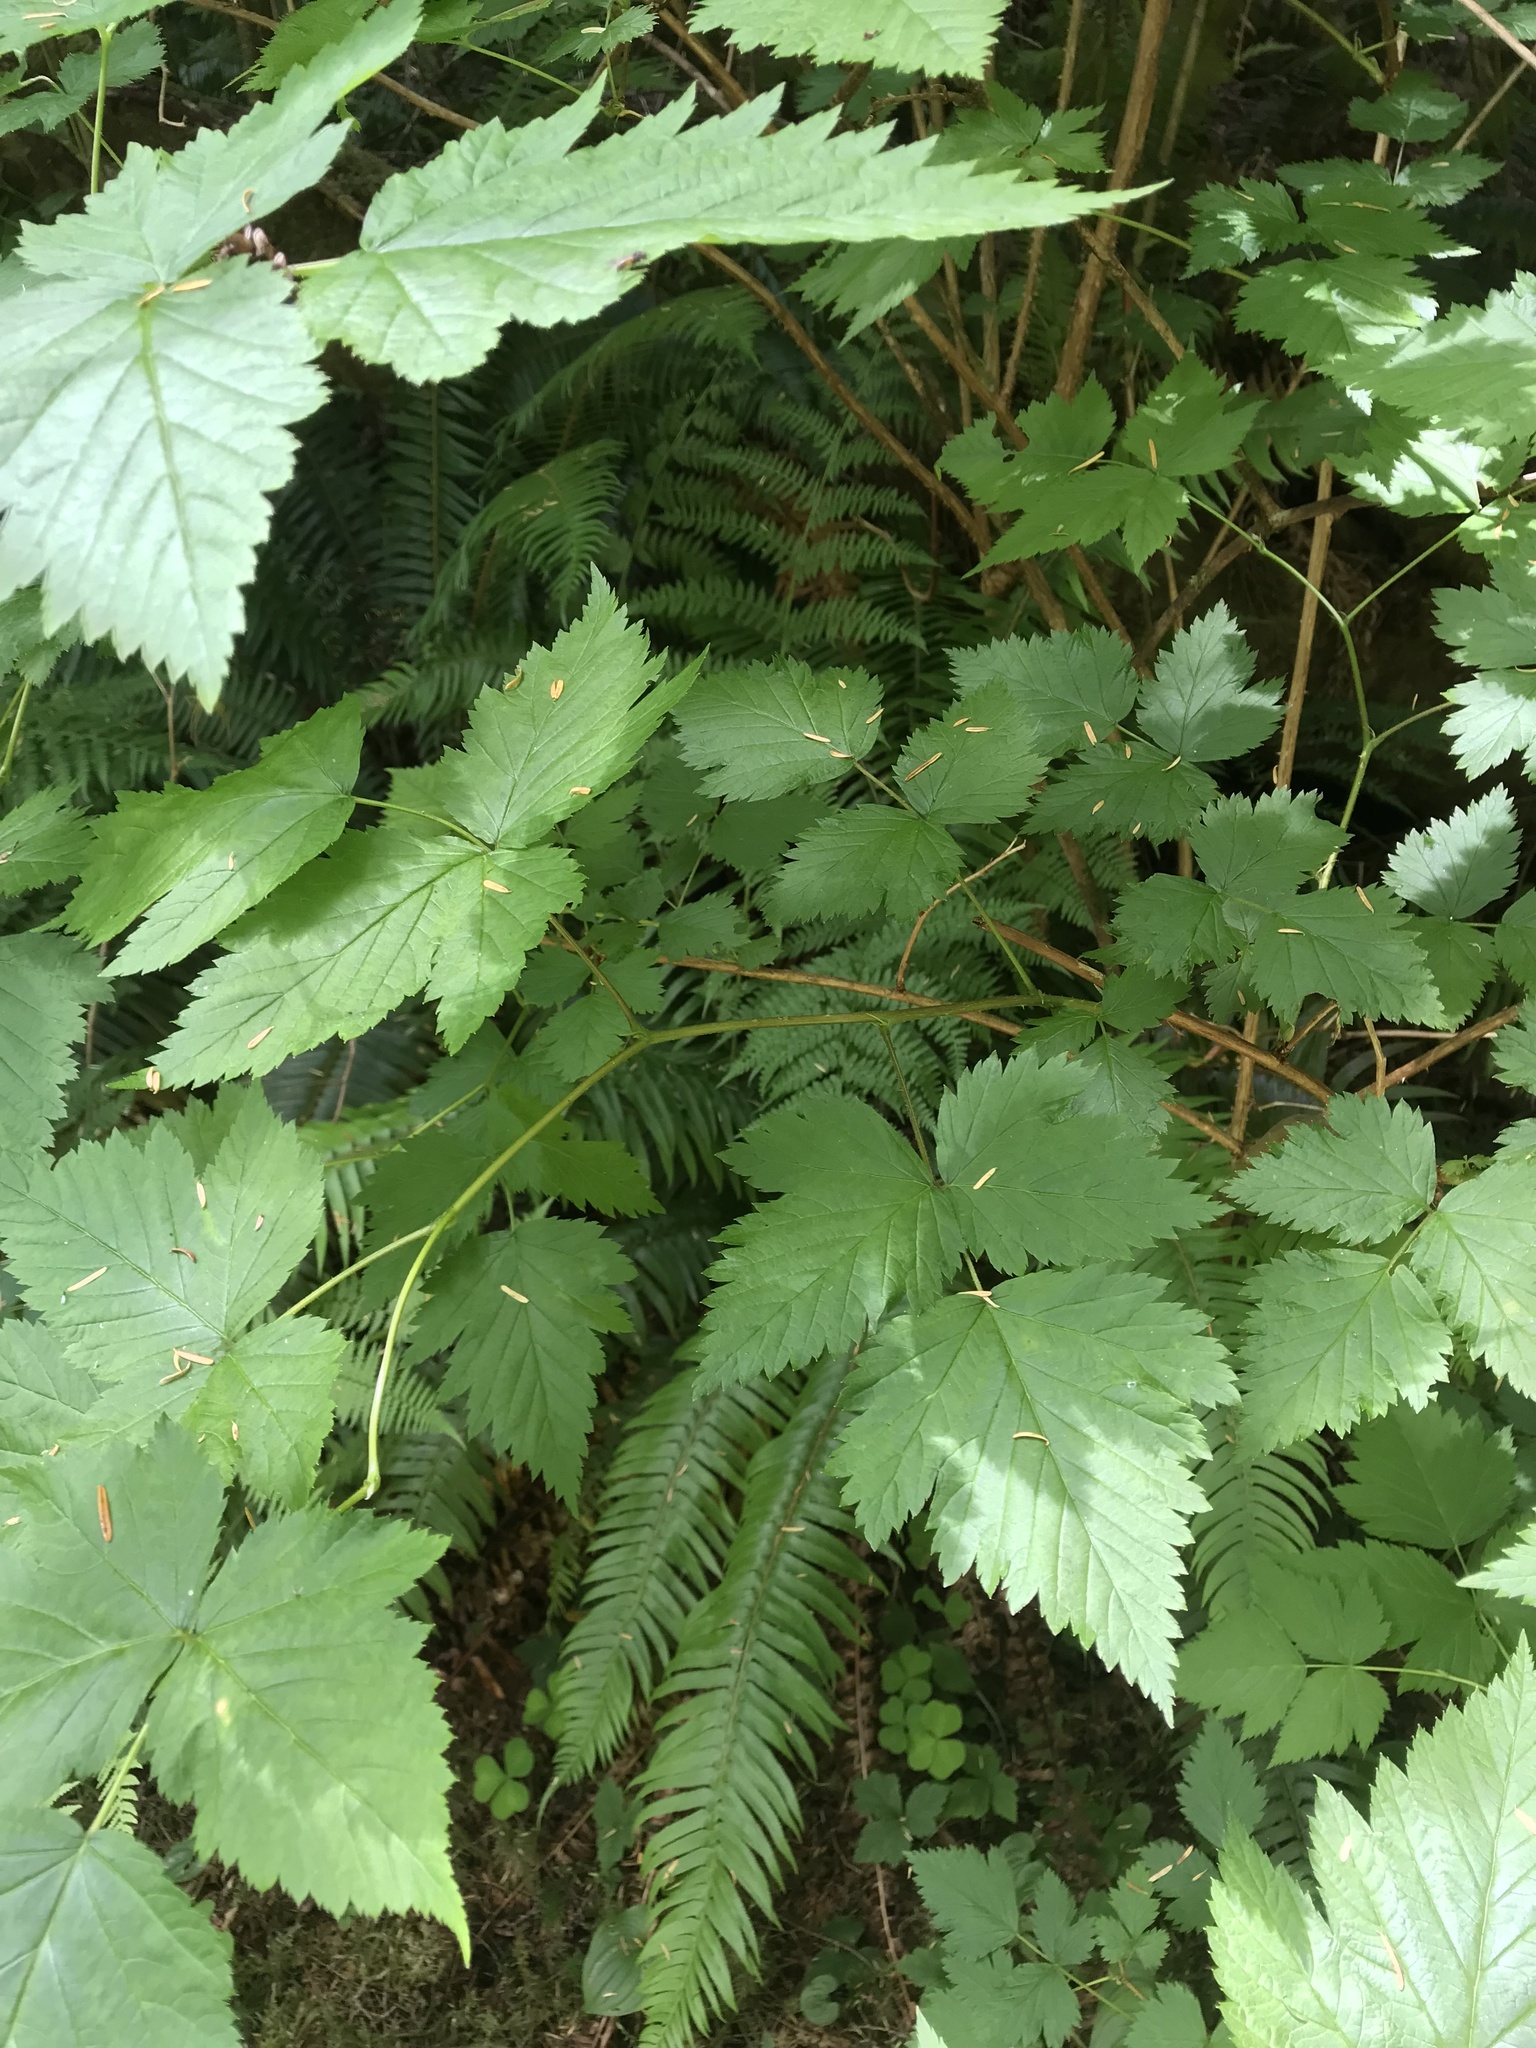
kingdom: Plantae
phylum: Tracheophyta
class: Magnoliopsida
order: Rosales
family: Rosaceae
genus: Rubus
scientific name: Rubus spectabilis
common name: Salmonberry
